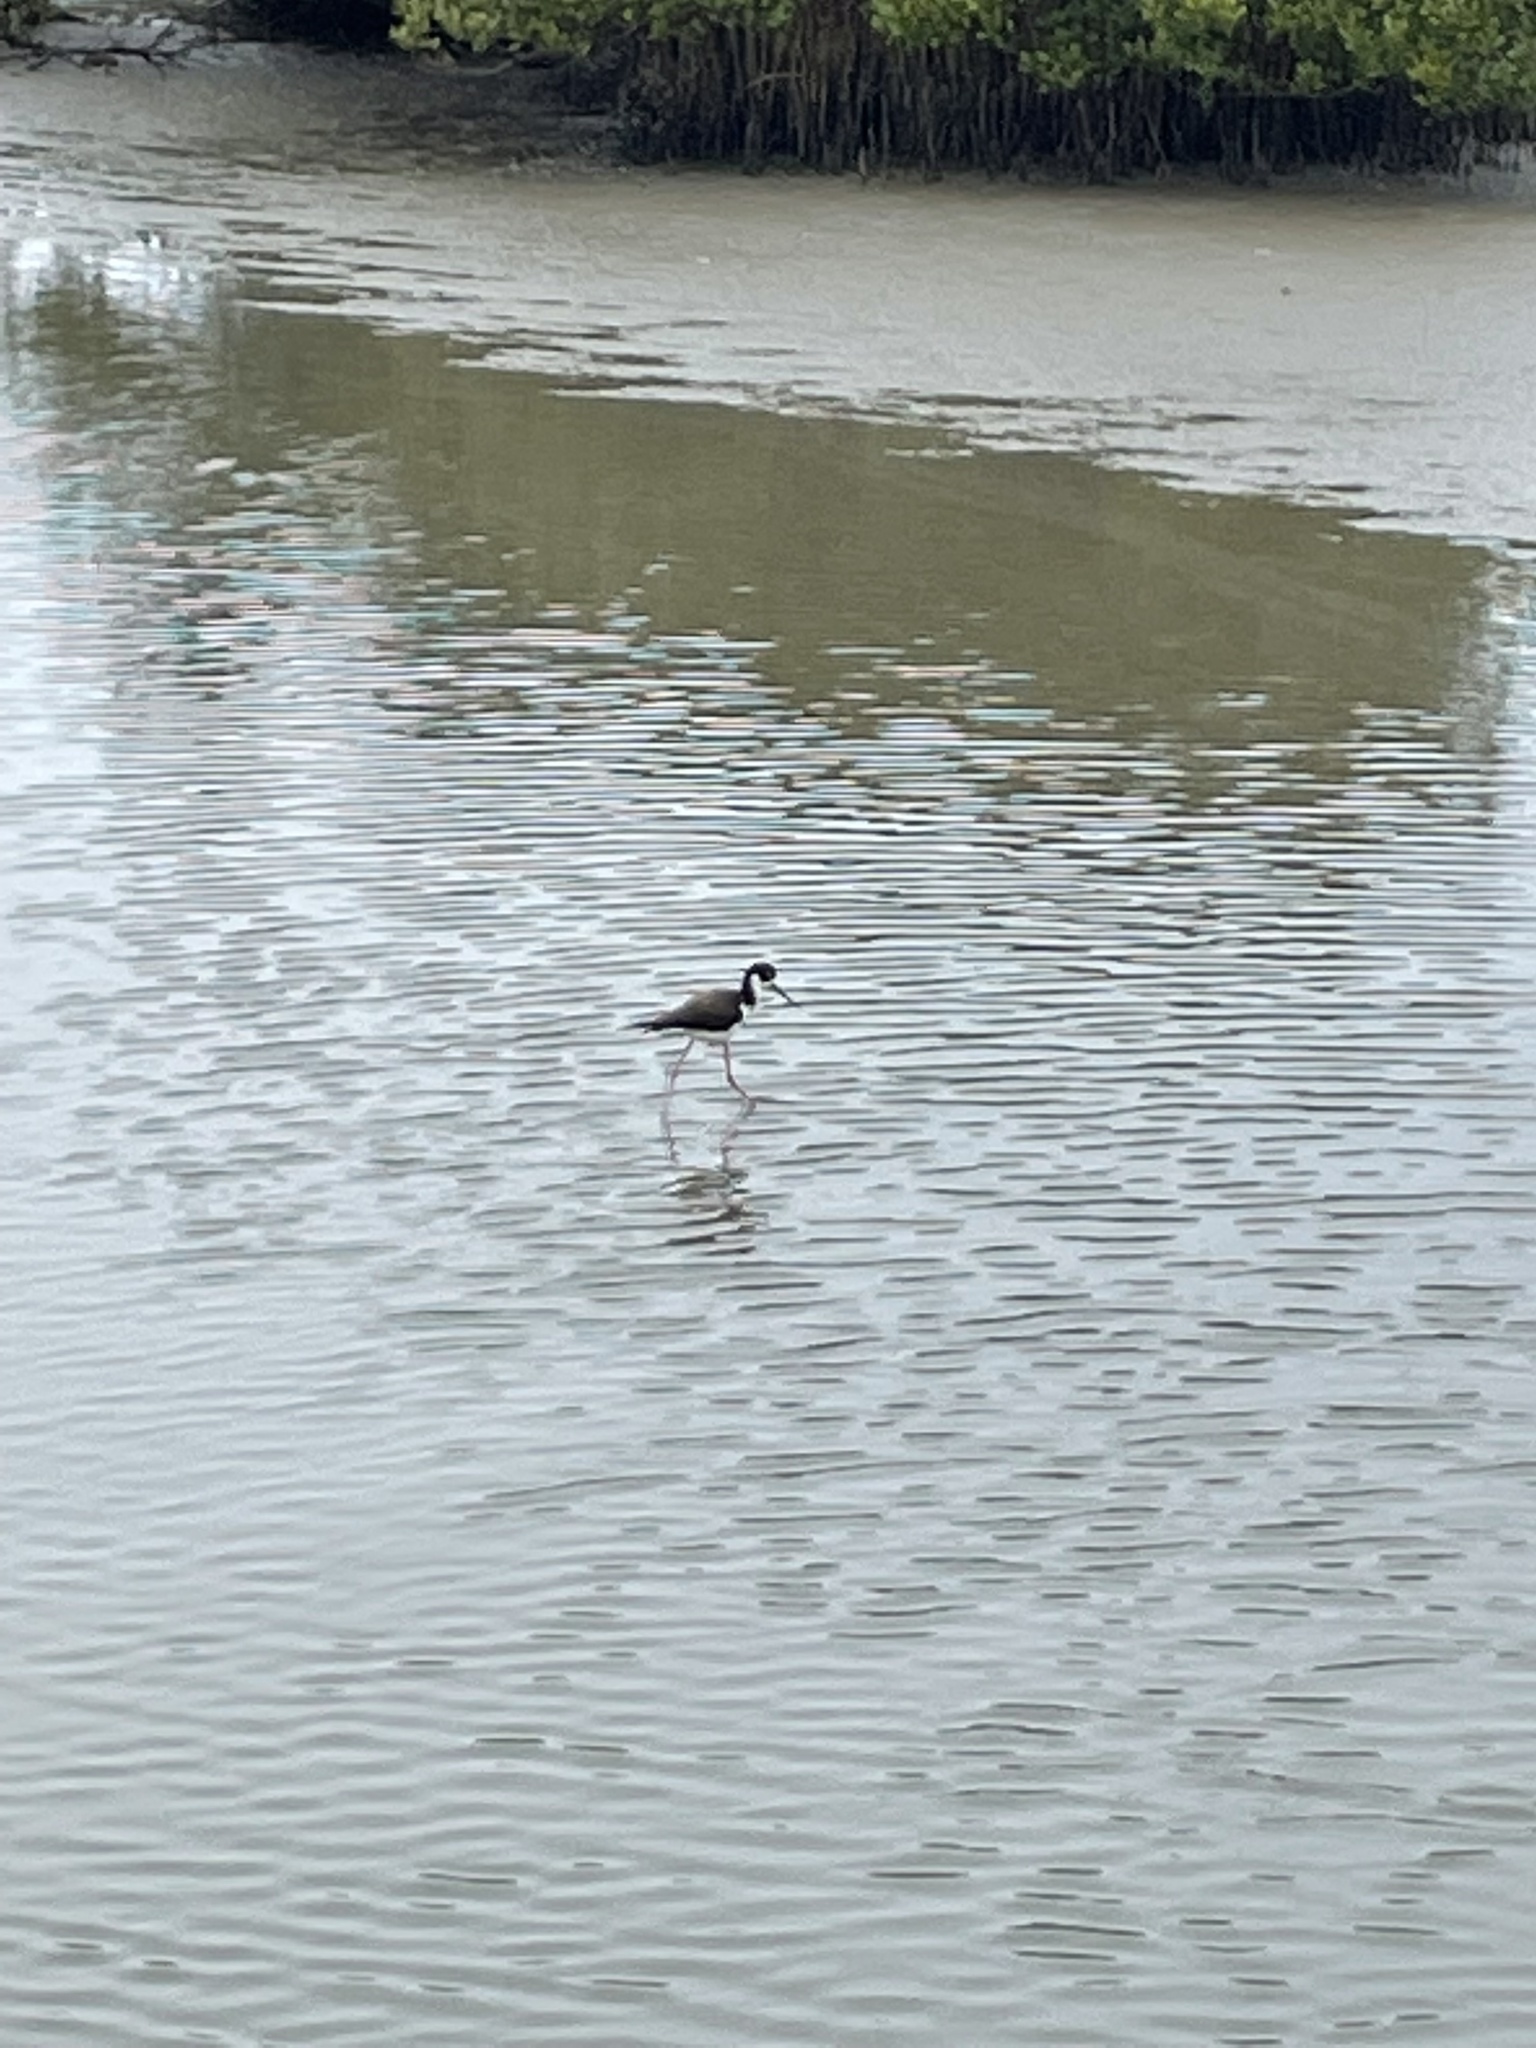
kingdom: Animalia
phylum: Chordata
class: Aves
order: Charadriiformes
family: Recurvirostridae
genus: Himantopus
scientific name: Himantopus mexicanus
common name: Black-necked stilt
